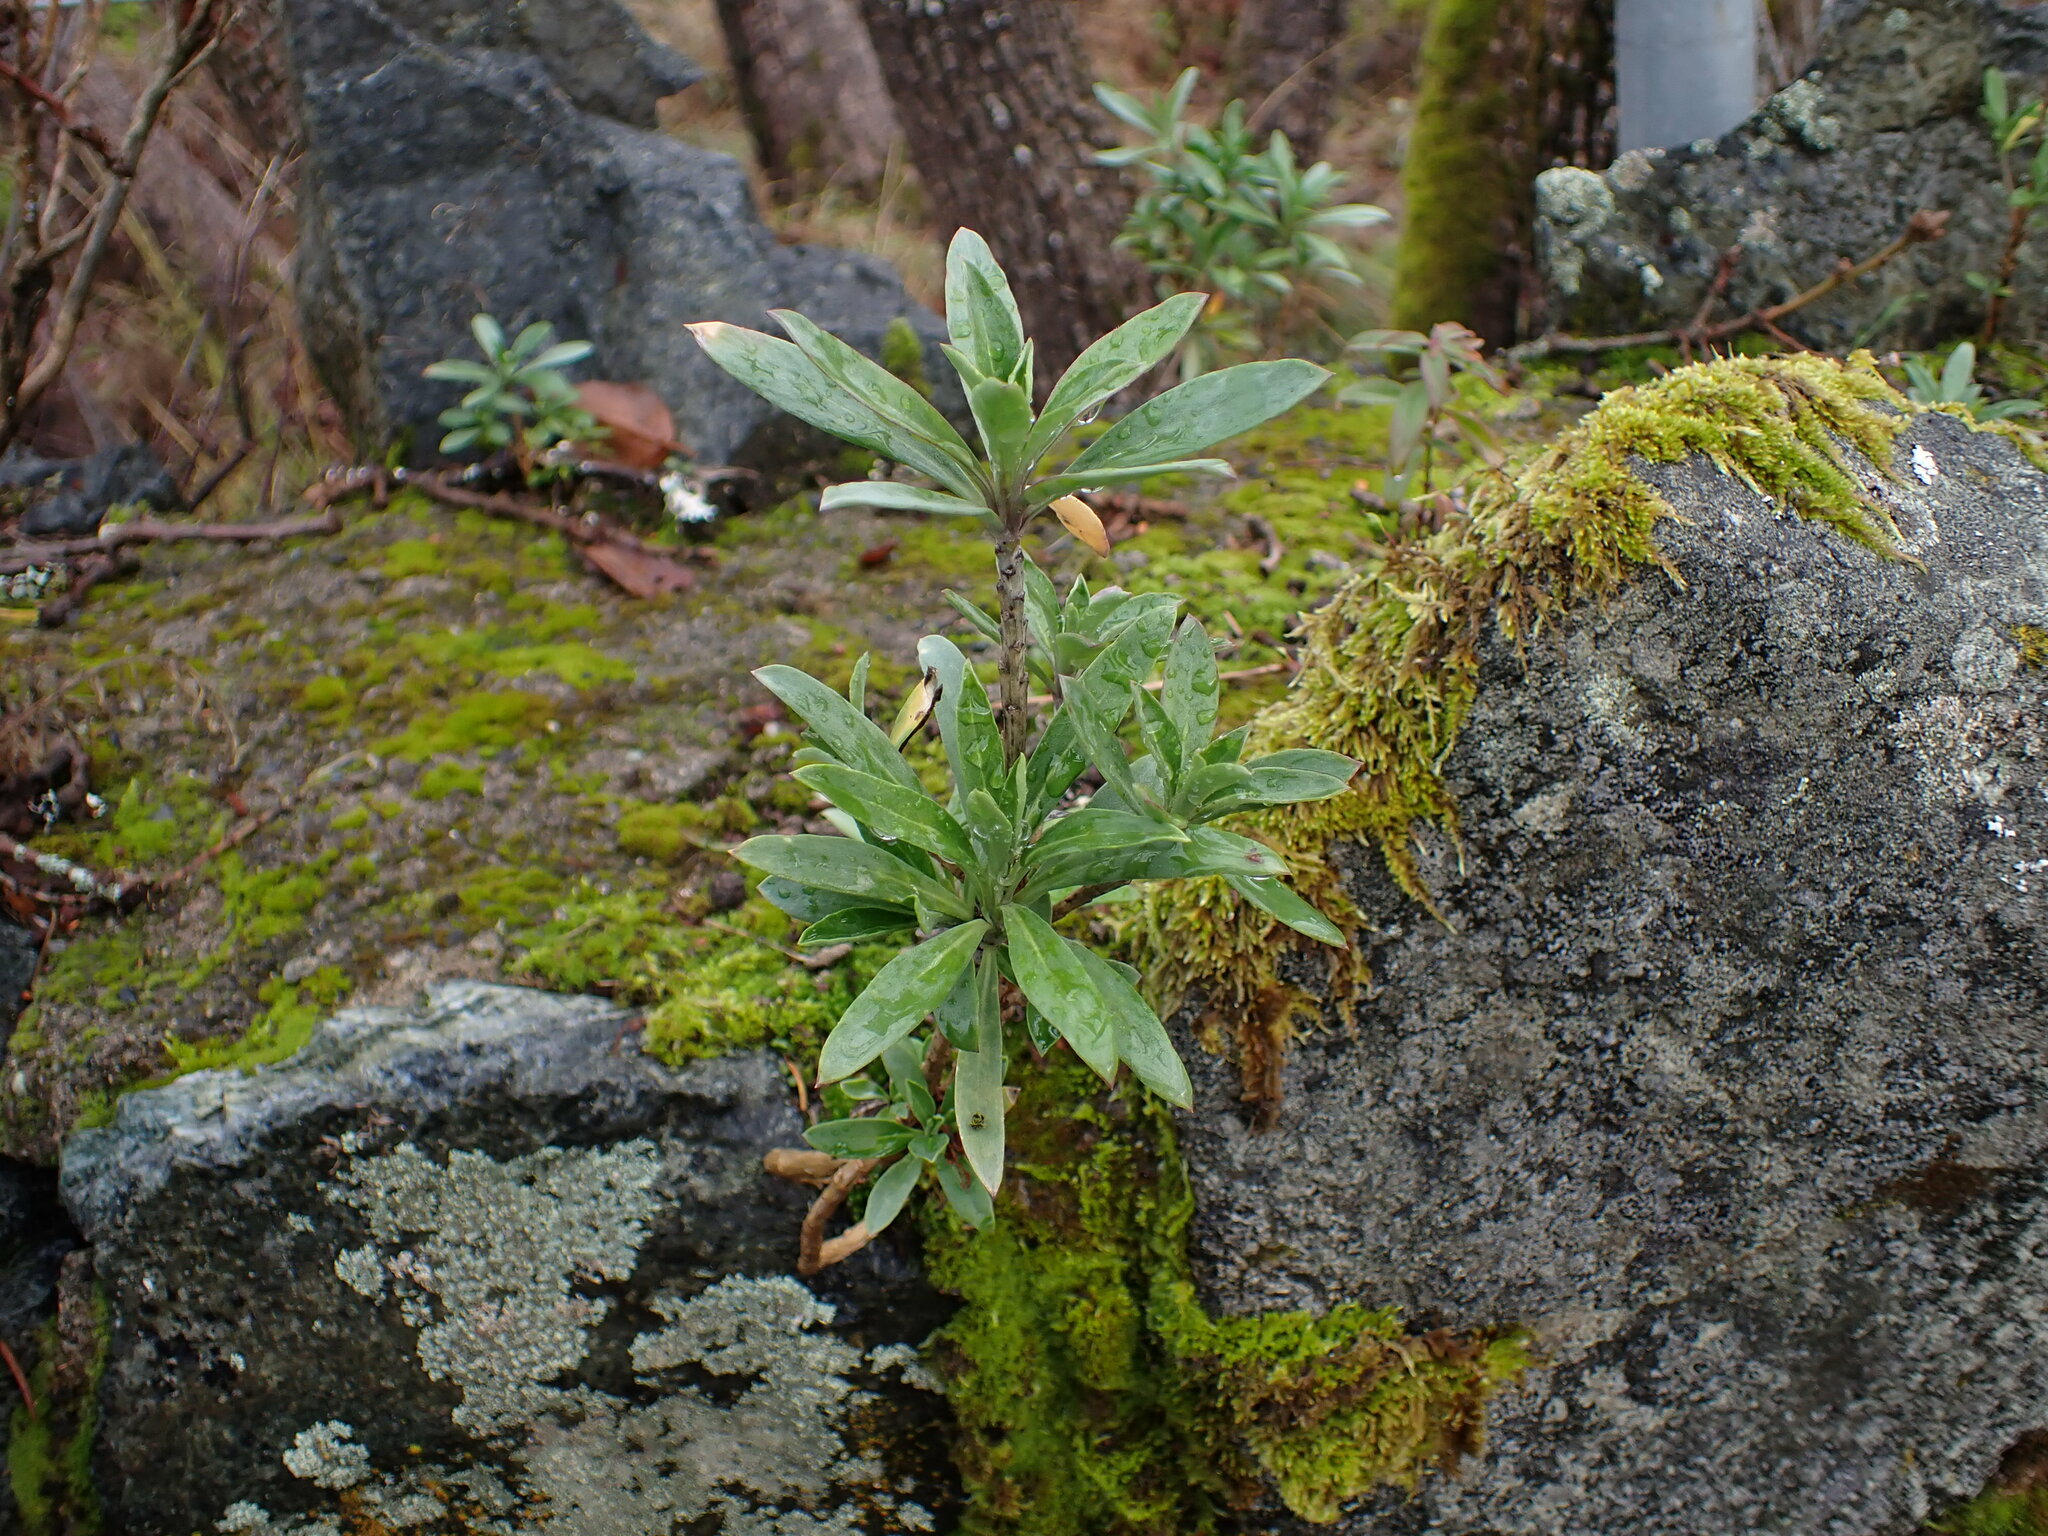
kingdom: Plantae
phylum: Tracheophyta
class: Magnoliopsida
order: Malvales
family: Thymelaeaceae
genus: Daphne
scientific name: Daphne laureola
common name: Spurge-laurel
